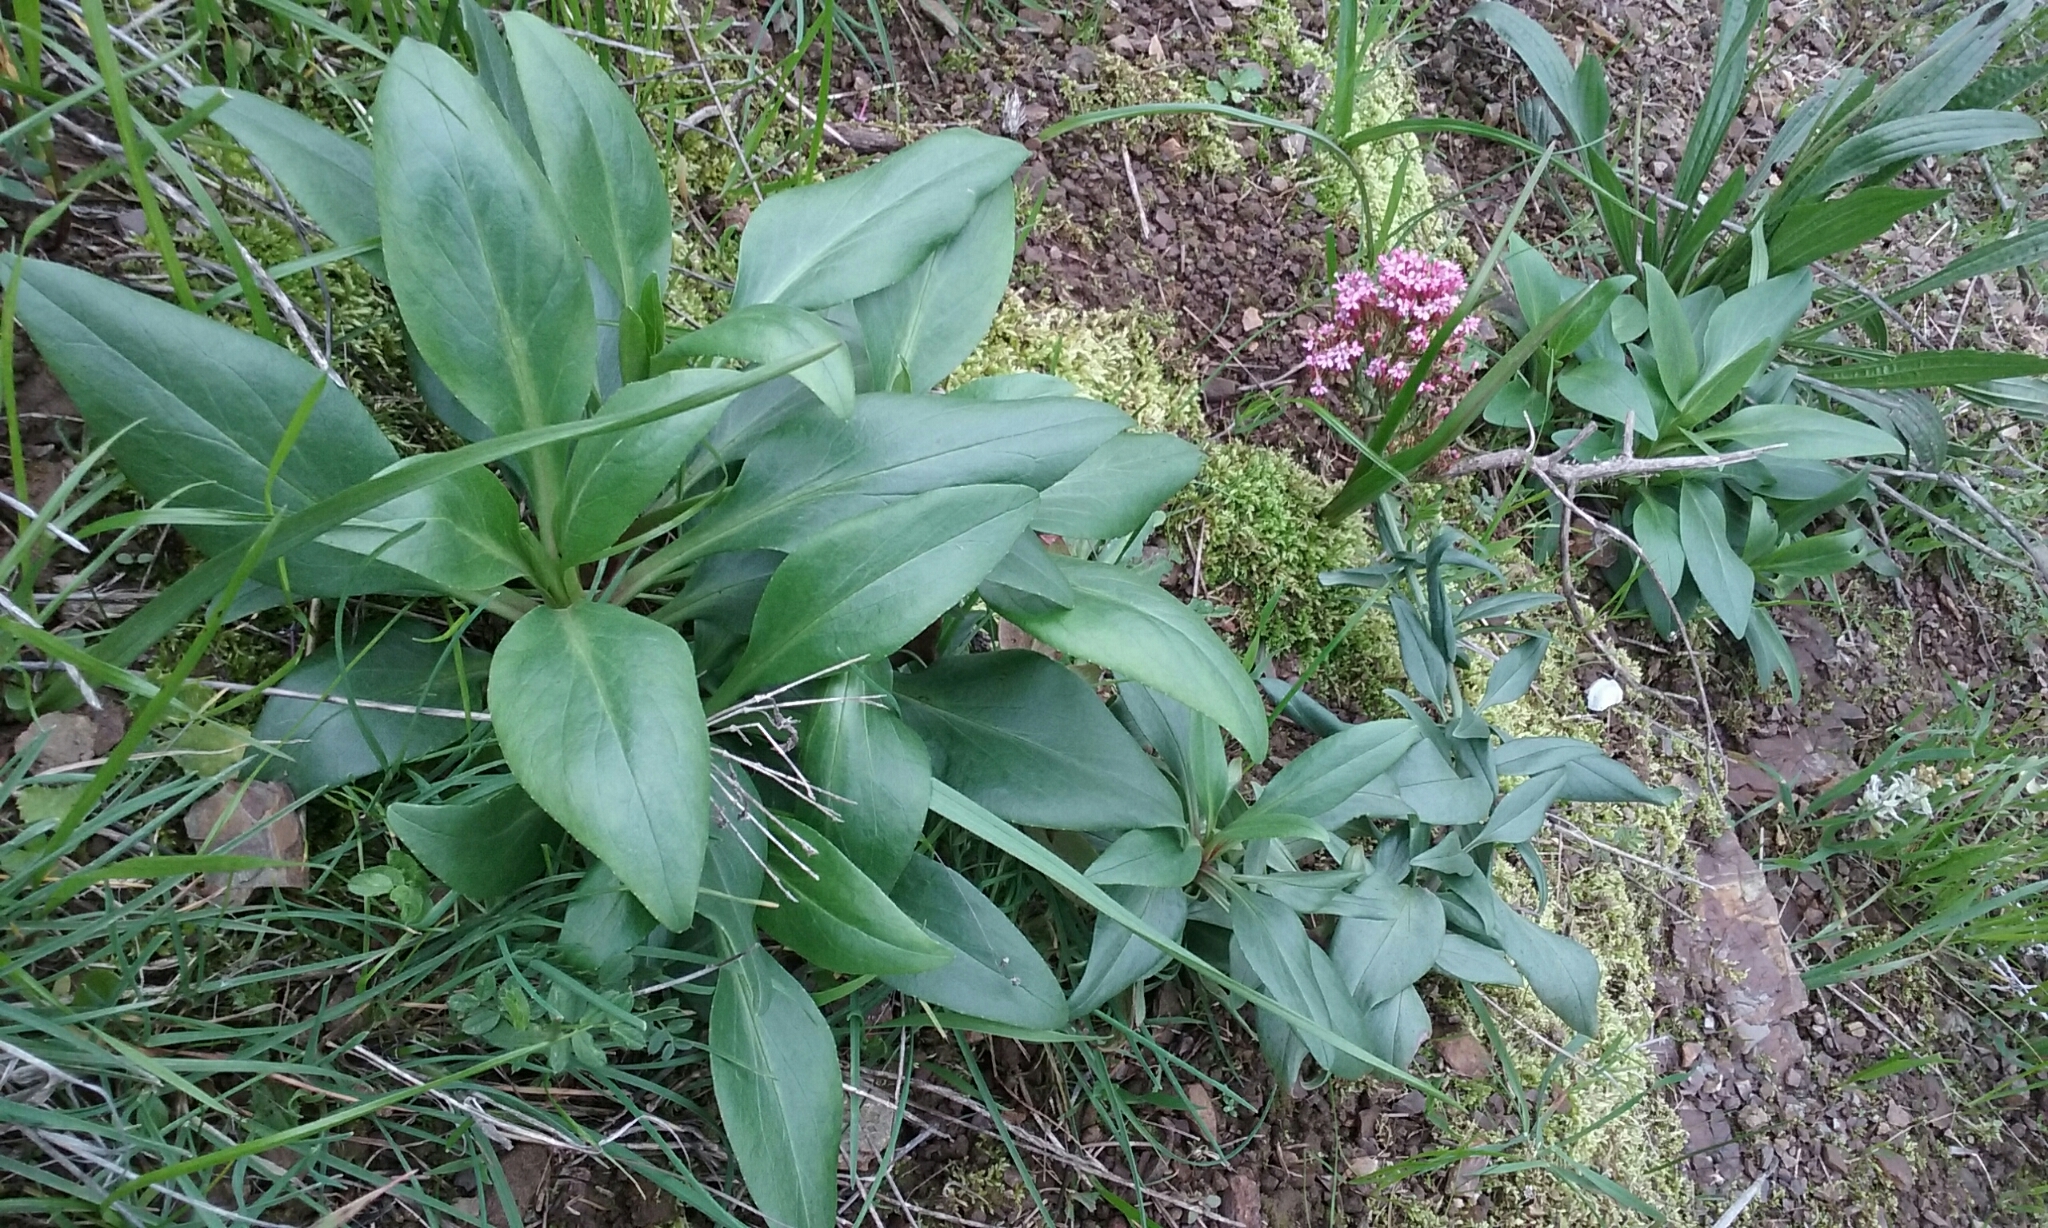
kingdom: Plantae
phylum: Tracheophyta
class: Magnoliopsida
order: Dipsacales
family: Caprifoliaceae
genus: Centranthus
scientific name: Centranthus ruber
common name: Red valerian
